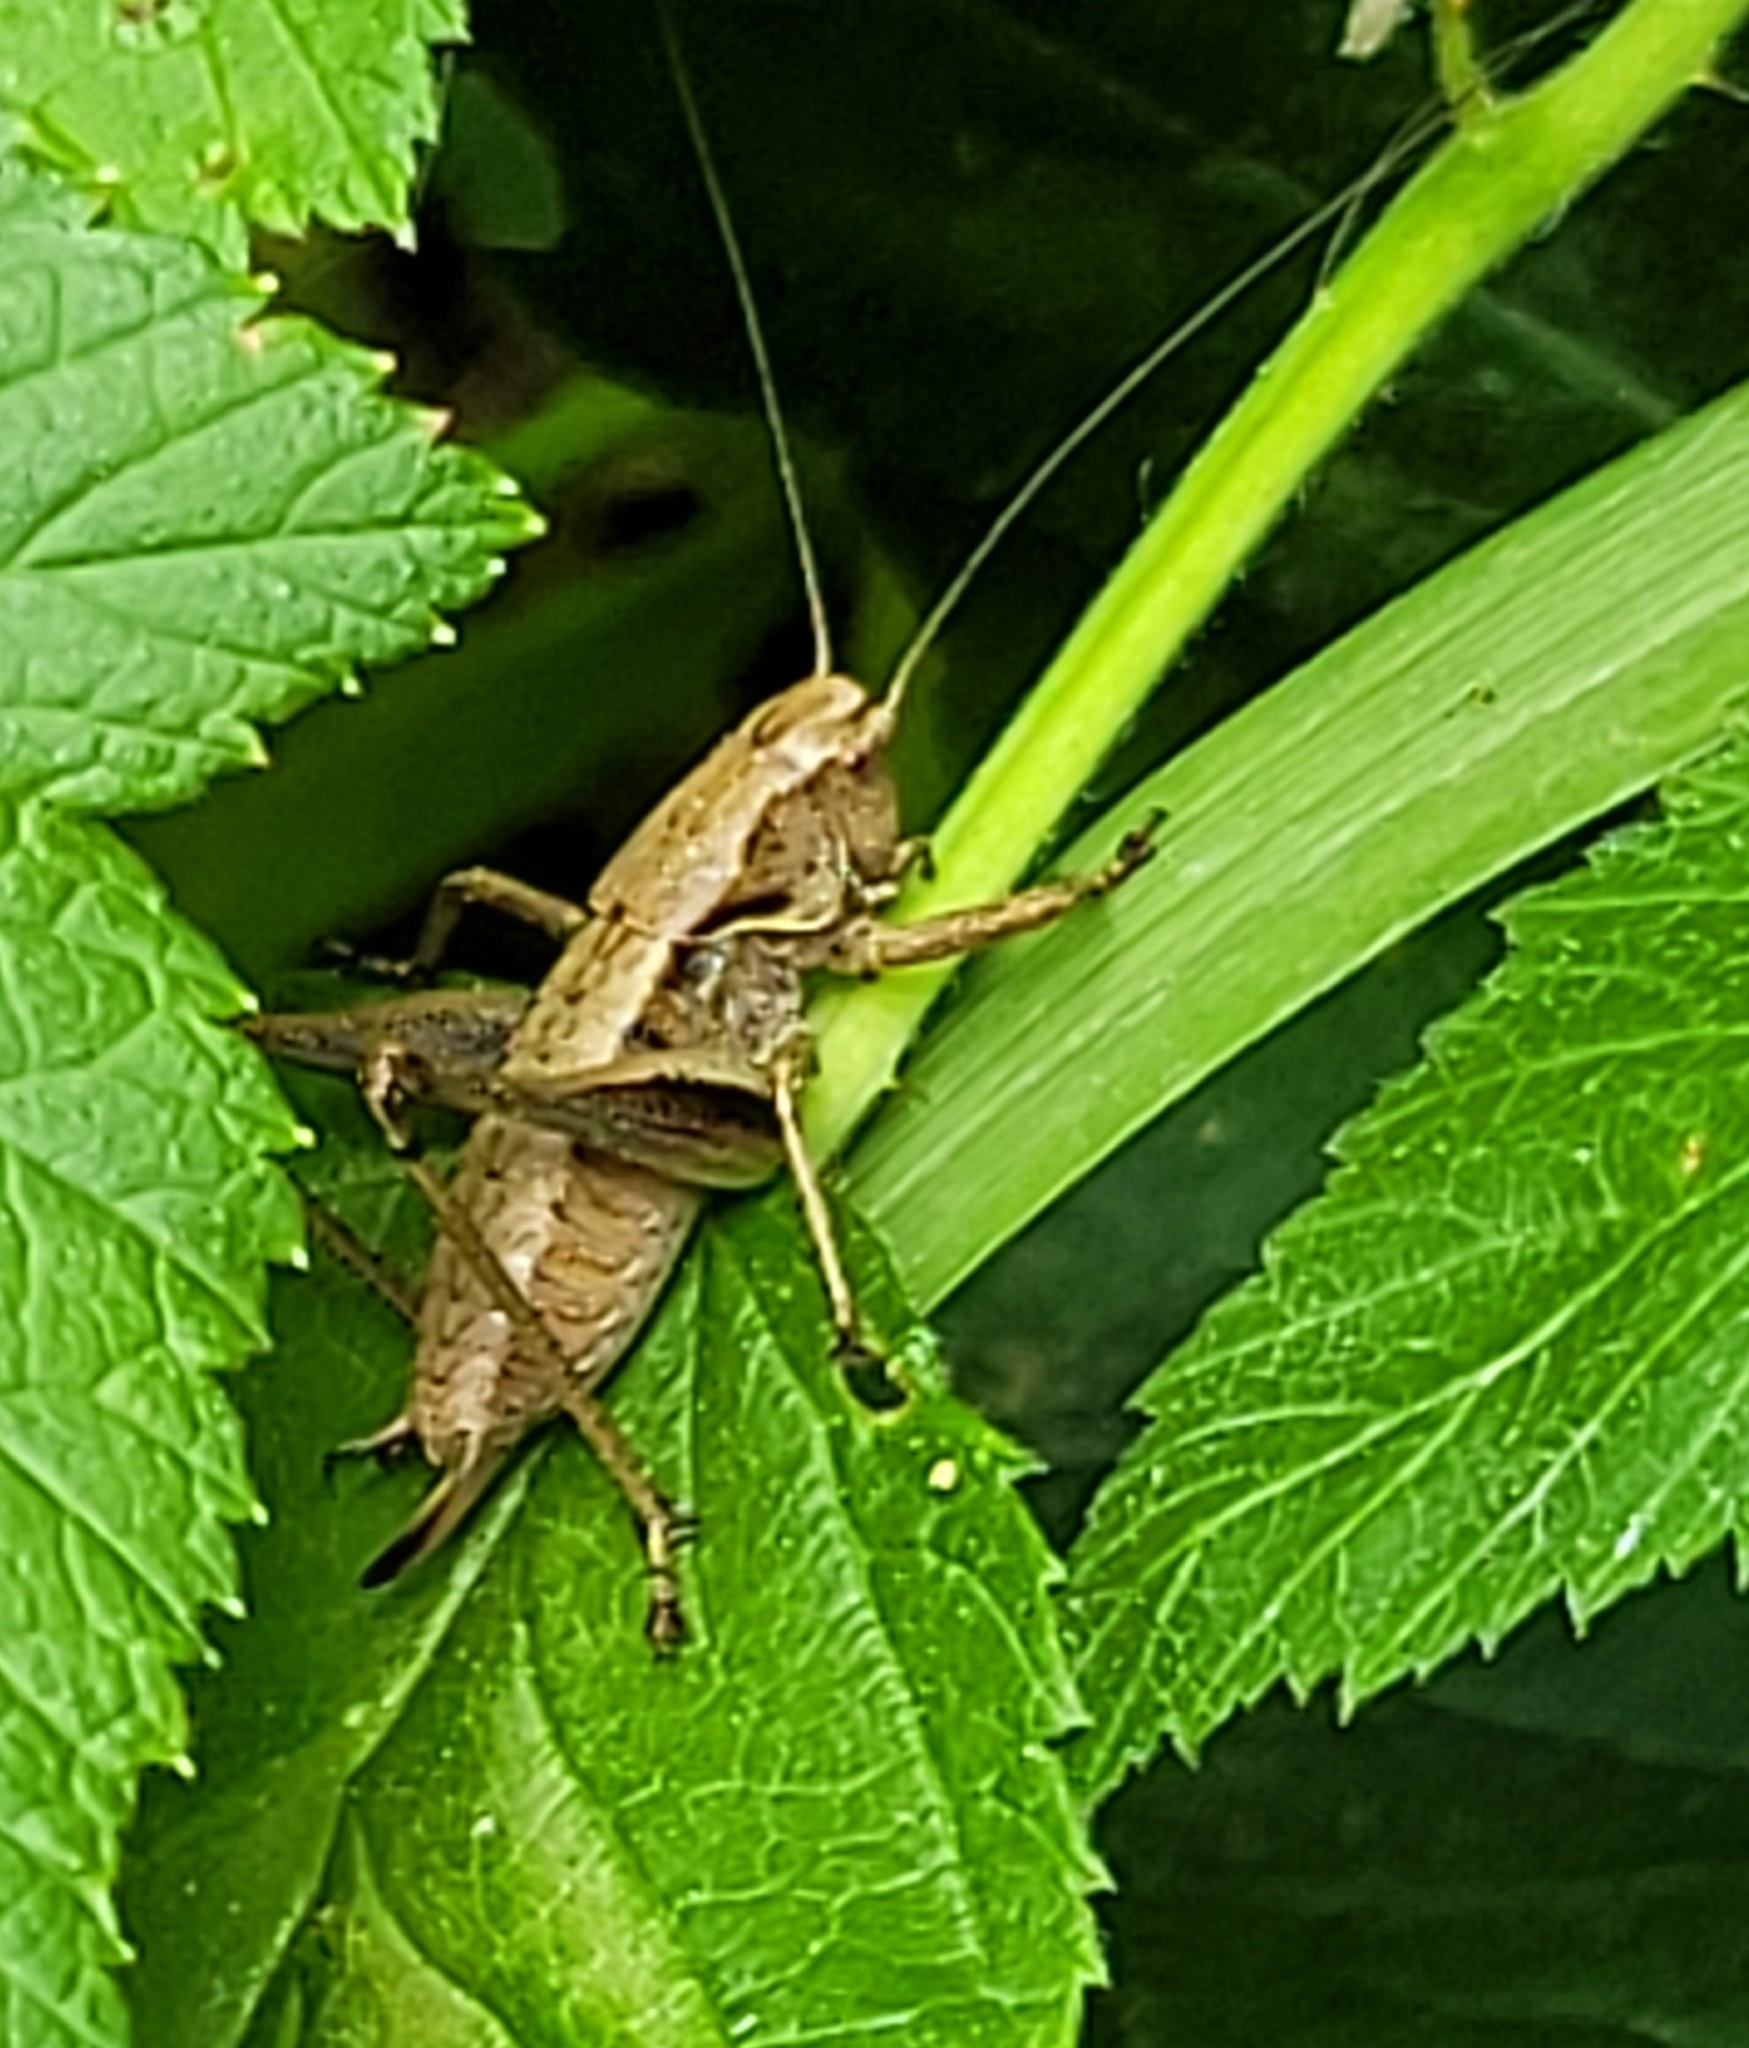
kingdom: Animalia
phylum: Arthropoda
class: Insecta
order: Orthoptera
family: Tettigoniidae
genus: Pholidoptera
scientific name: Pholidoptera griseoaptera
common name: Dark bush-cricket
